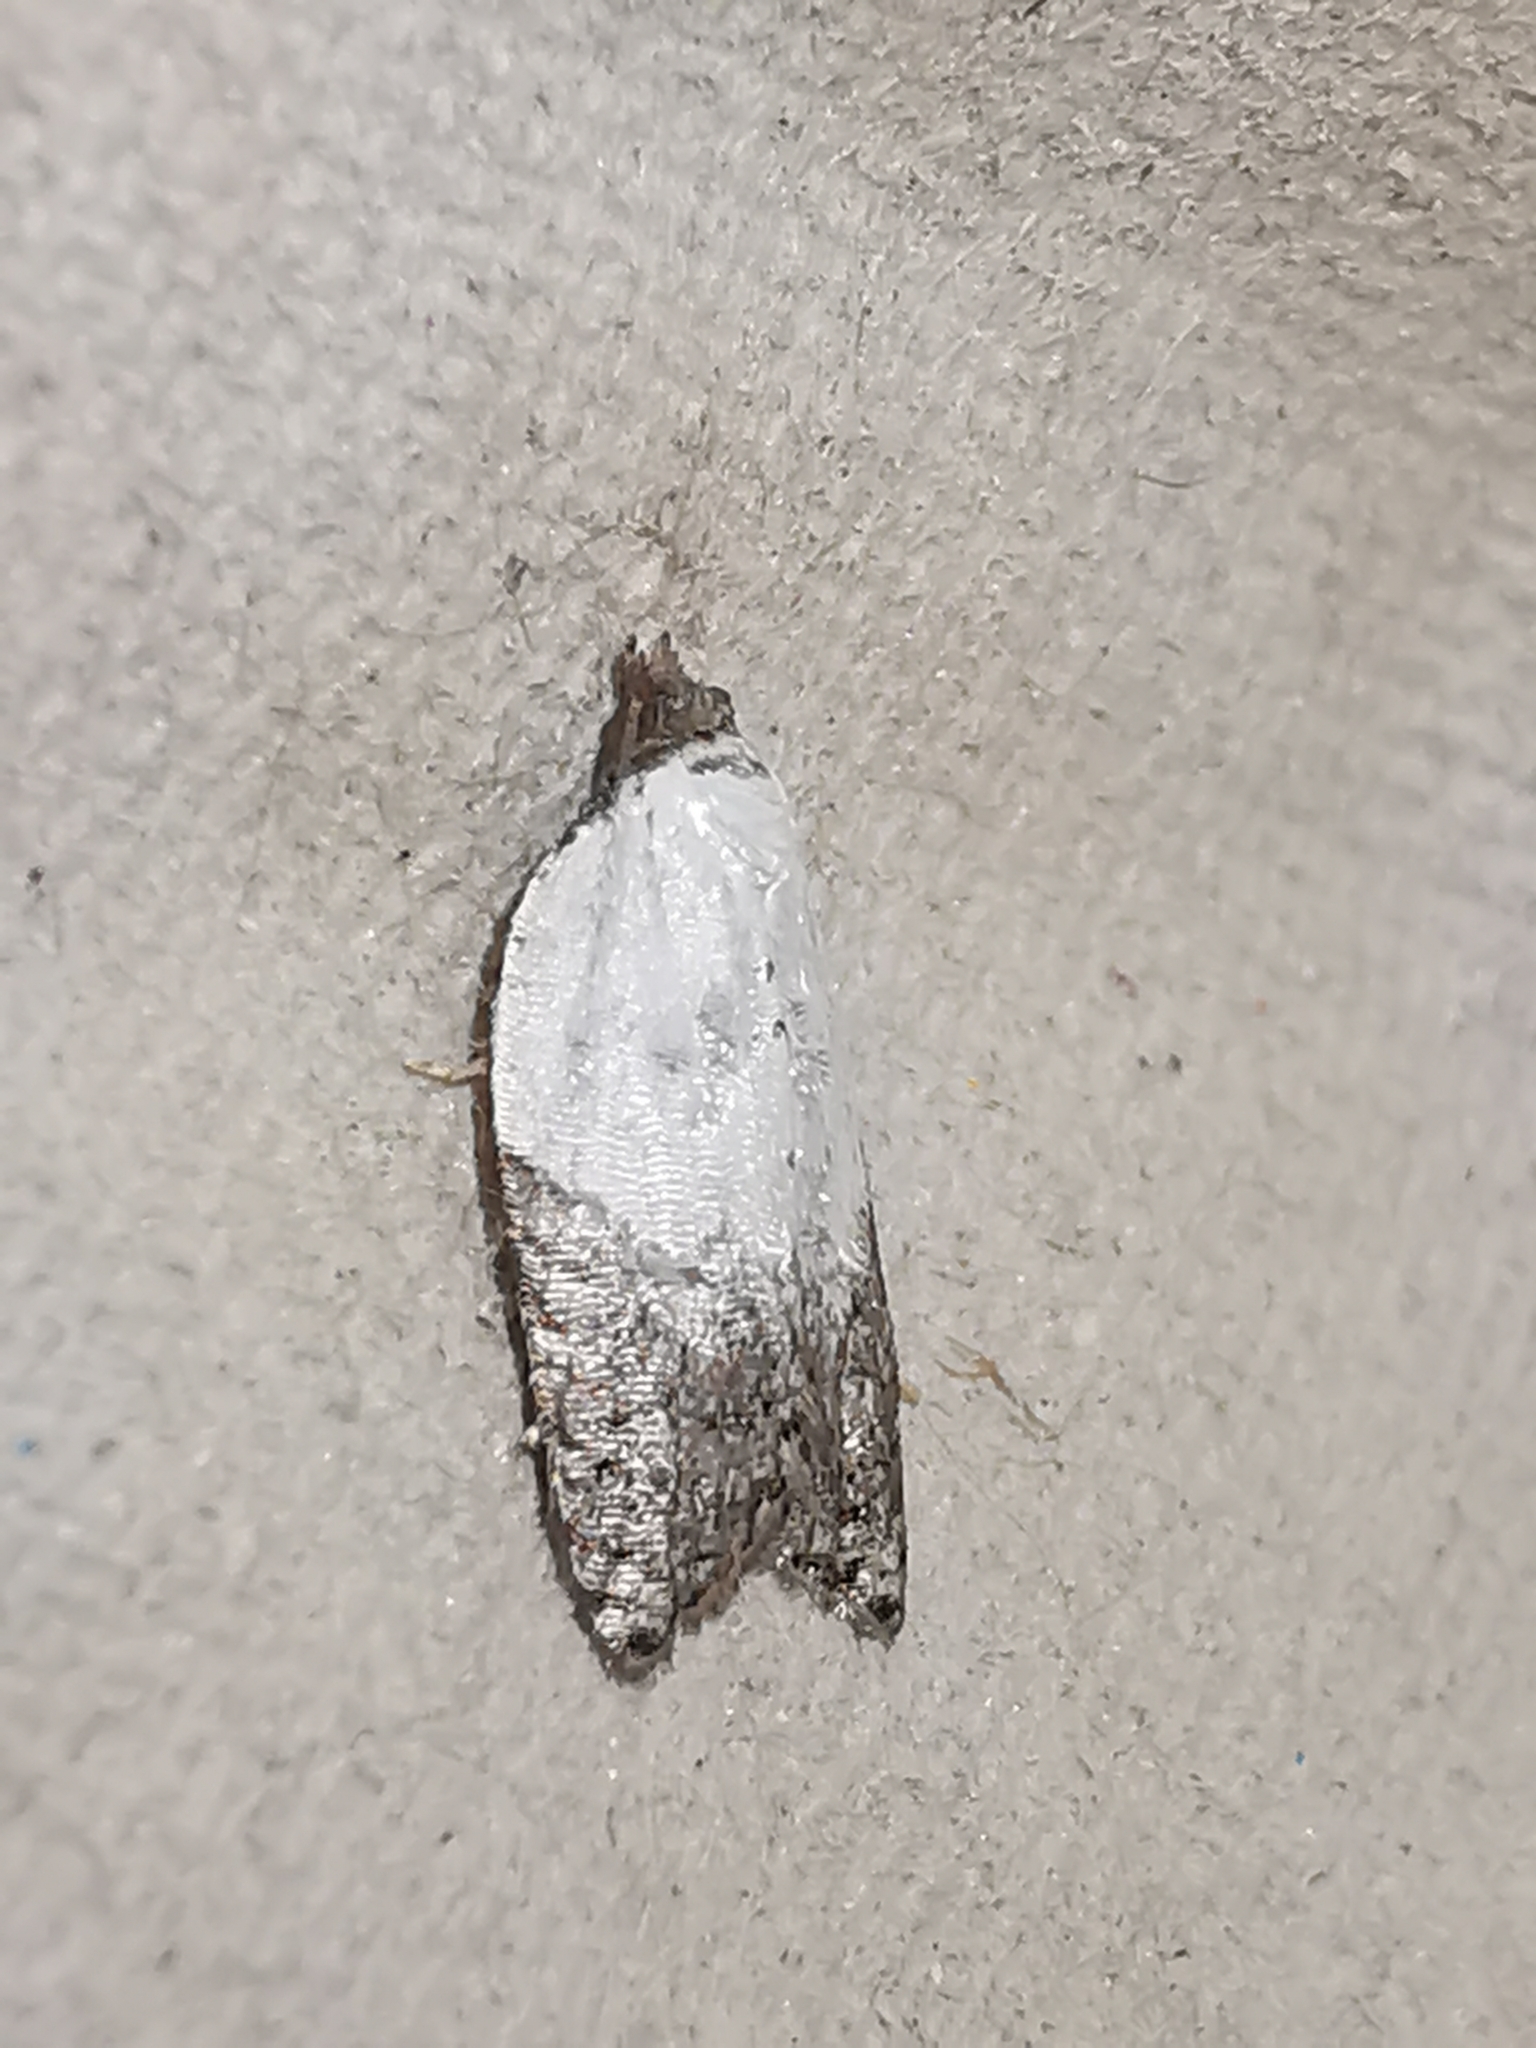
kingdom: Animalia
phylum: Arthropoda
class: Insecta
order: Lepidoptera
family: Tortricidae
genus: Acleris
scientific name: Acleris variegana
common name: Garden rose tortrix
